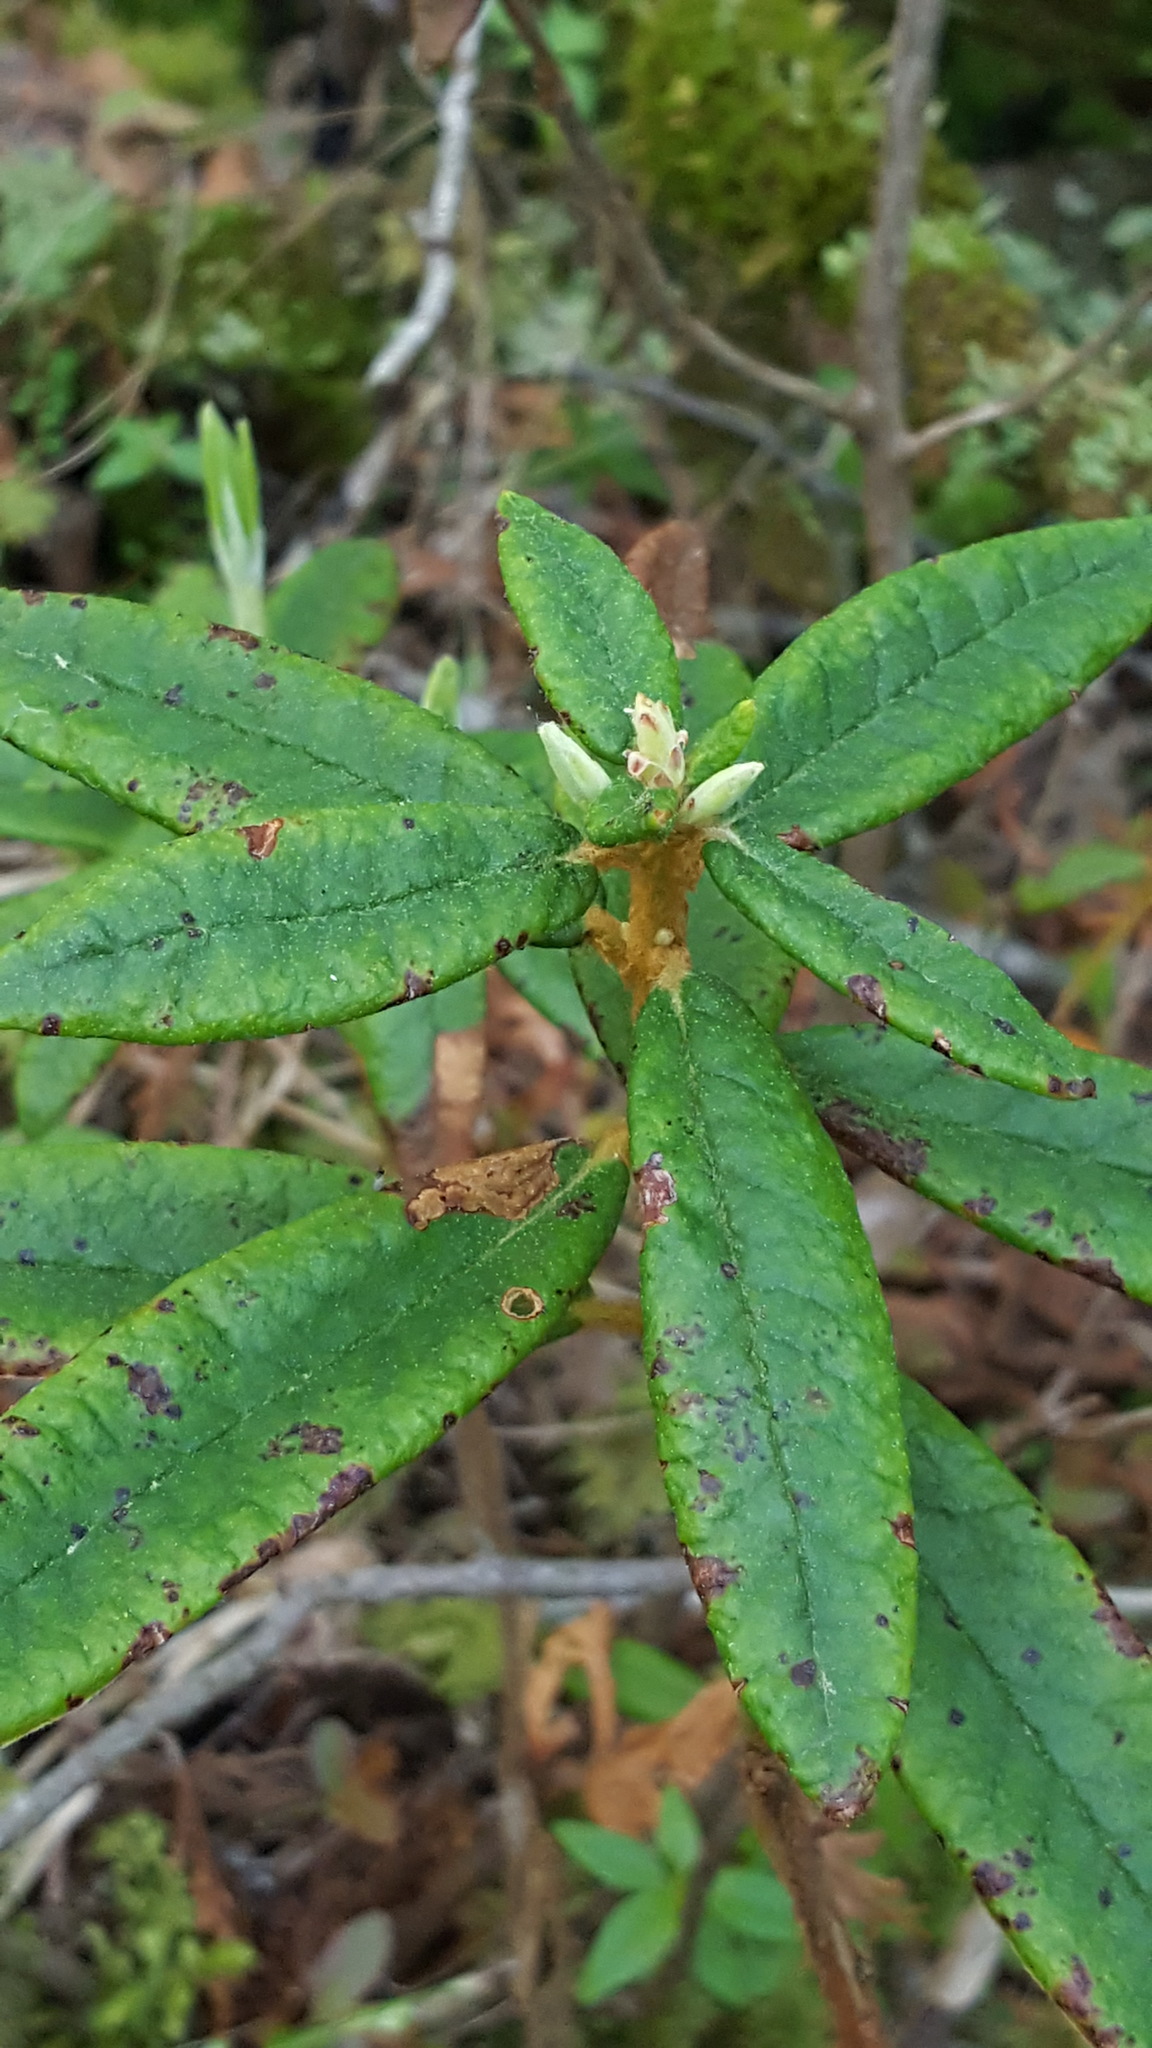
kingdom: Plantae
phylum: Tracheophyta
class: Magnoliopsida
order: Ericales
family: Ericaceae
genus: Rhododendron
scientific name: Rhododendron groenlandicum
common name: Bog labrador tea
